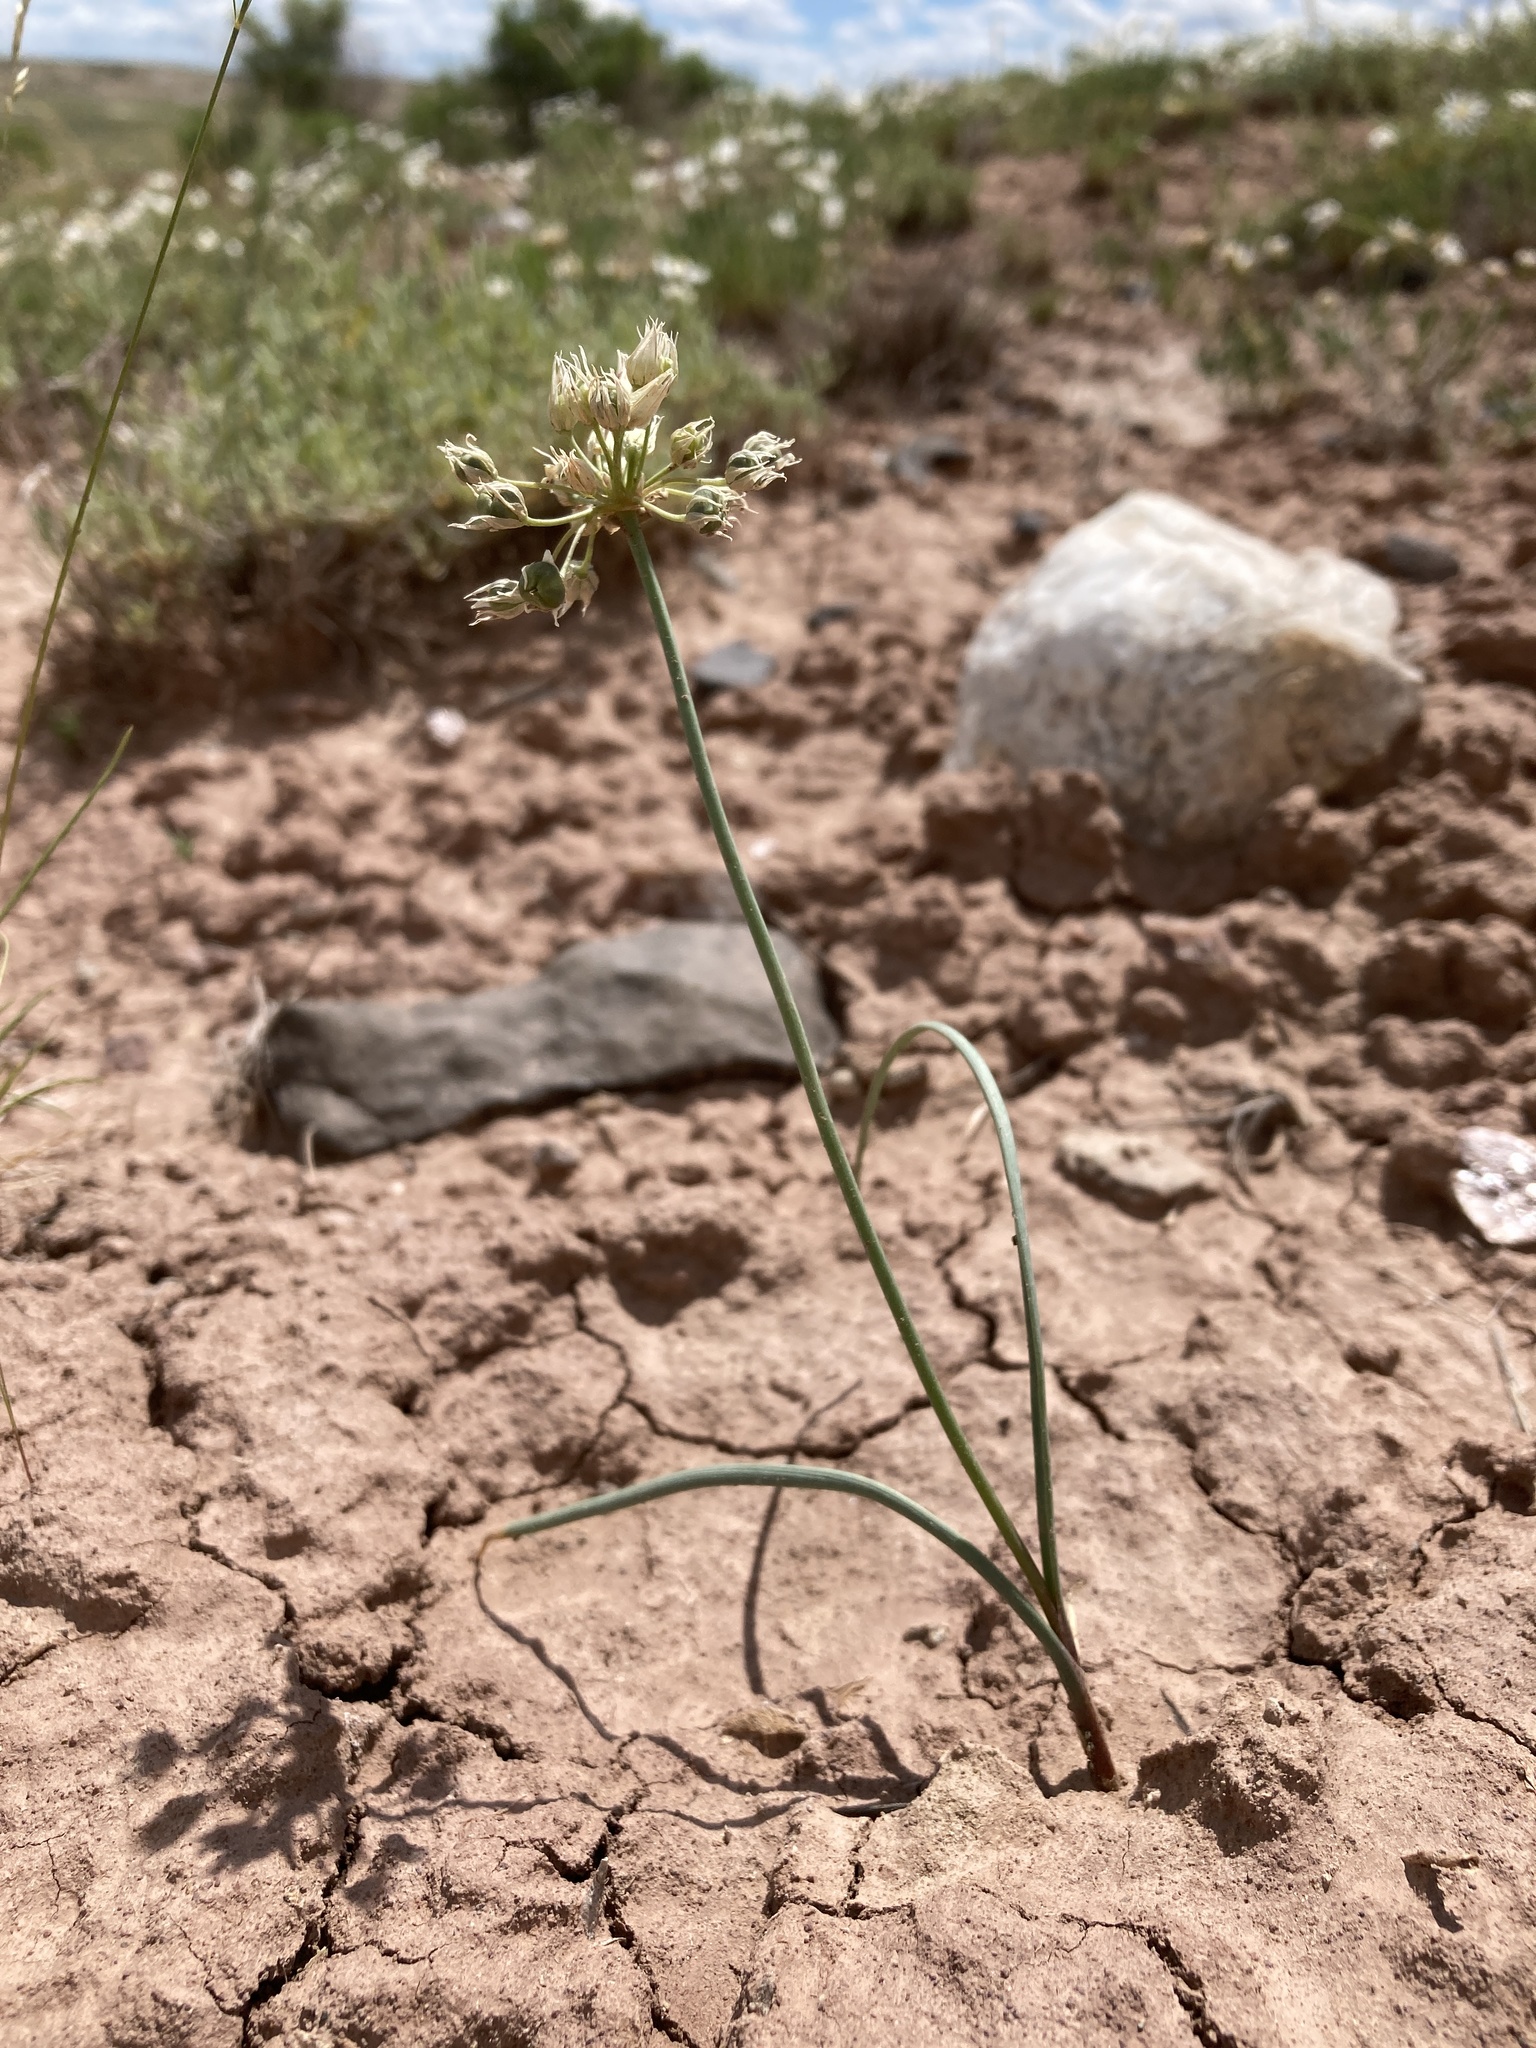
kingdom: Plantae
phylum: Tracheophyta
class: Liliopsida
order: Asparagales
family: Amaryllidaceae
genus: Allium
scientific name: Allium textile
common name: Prairie onion
